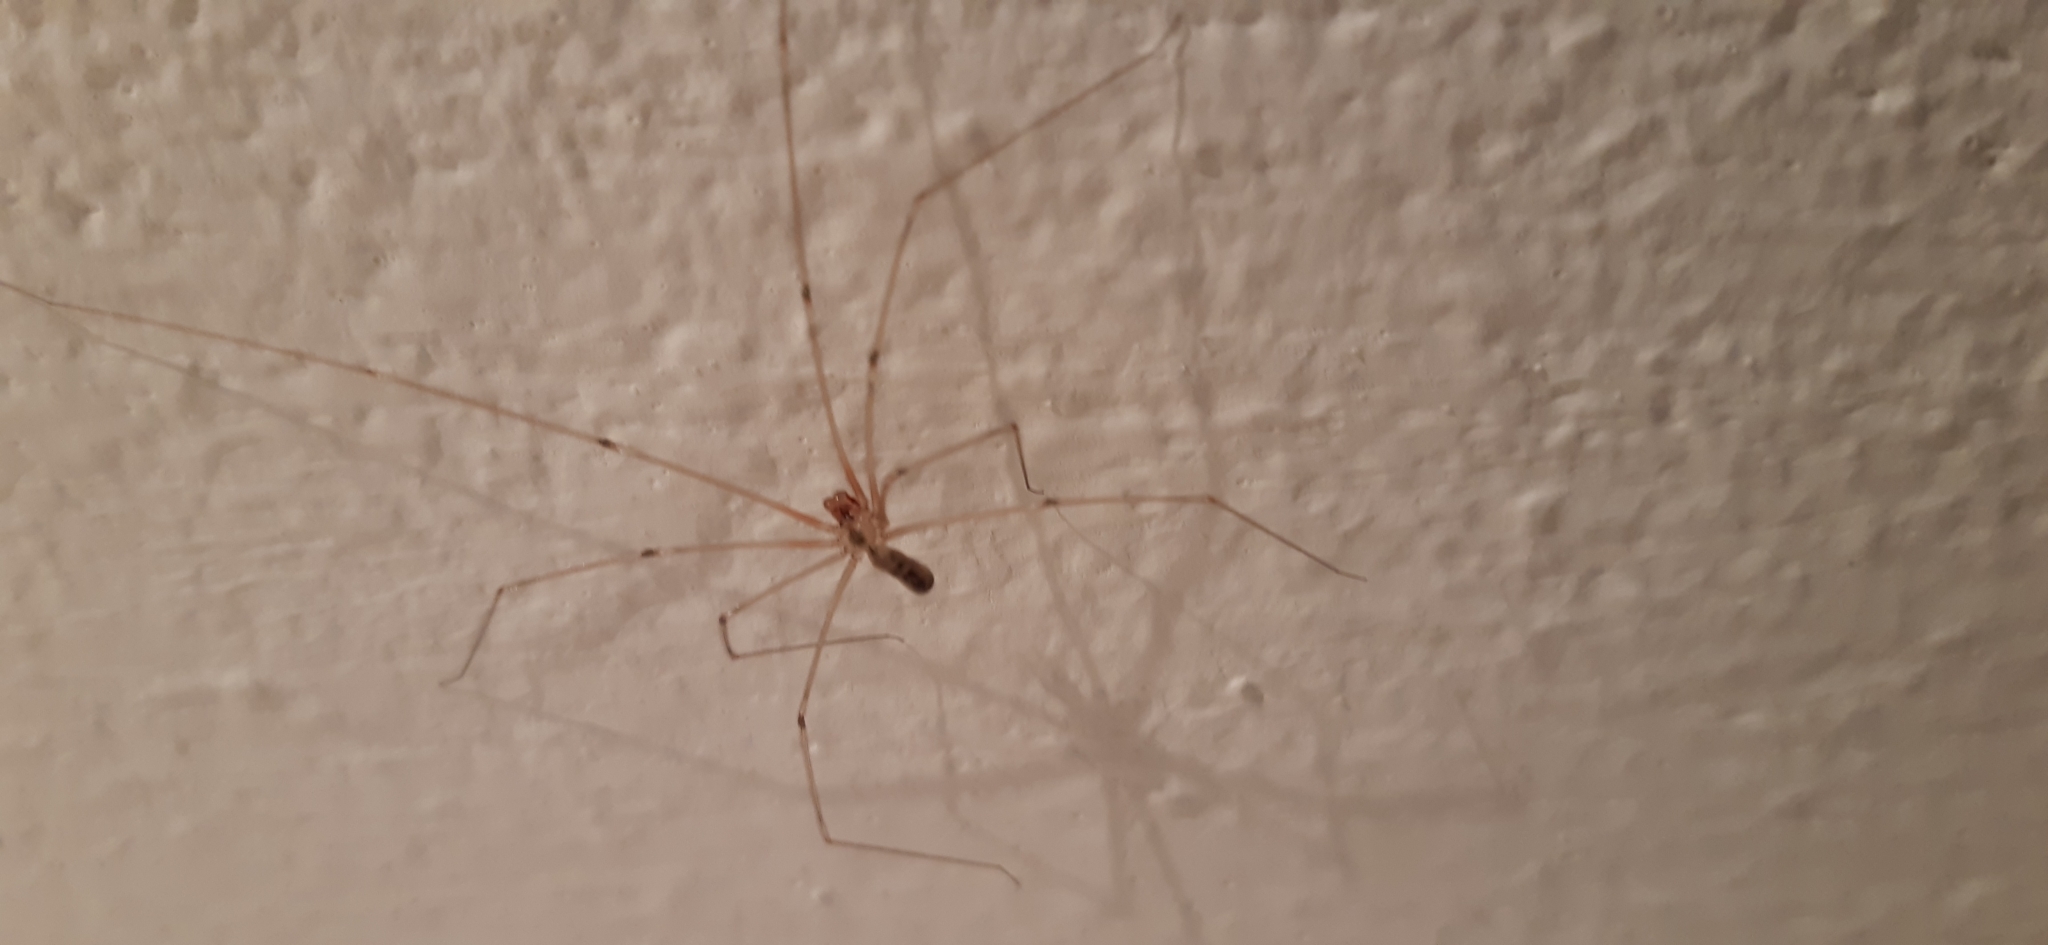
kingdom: Animalia
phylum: Arthropoda
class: Arachnida
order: Araneae
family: Pholcidae
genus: Pholcus
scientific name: Pholcus phalangioides
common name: Longbodied cellar spider
